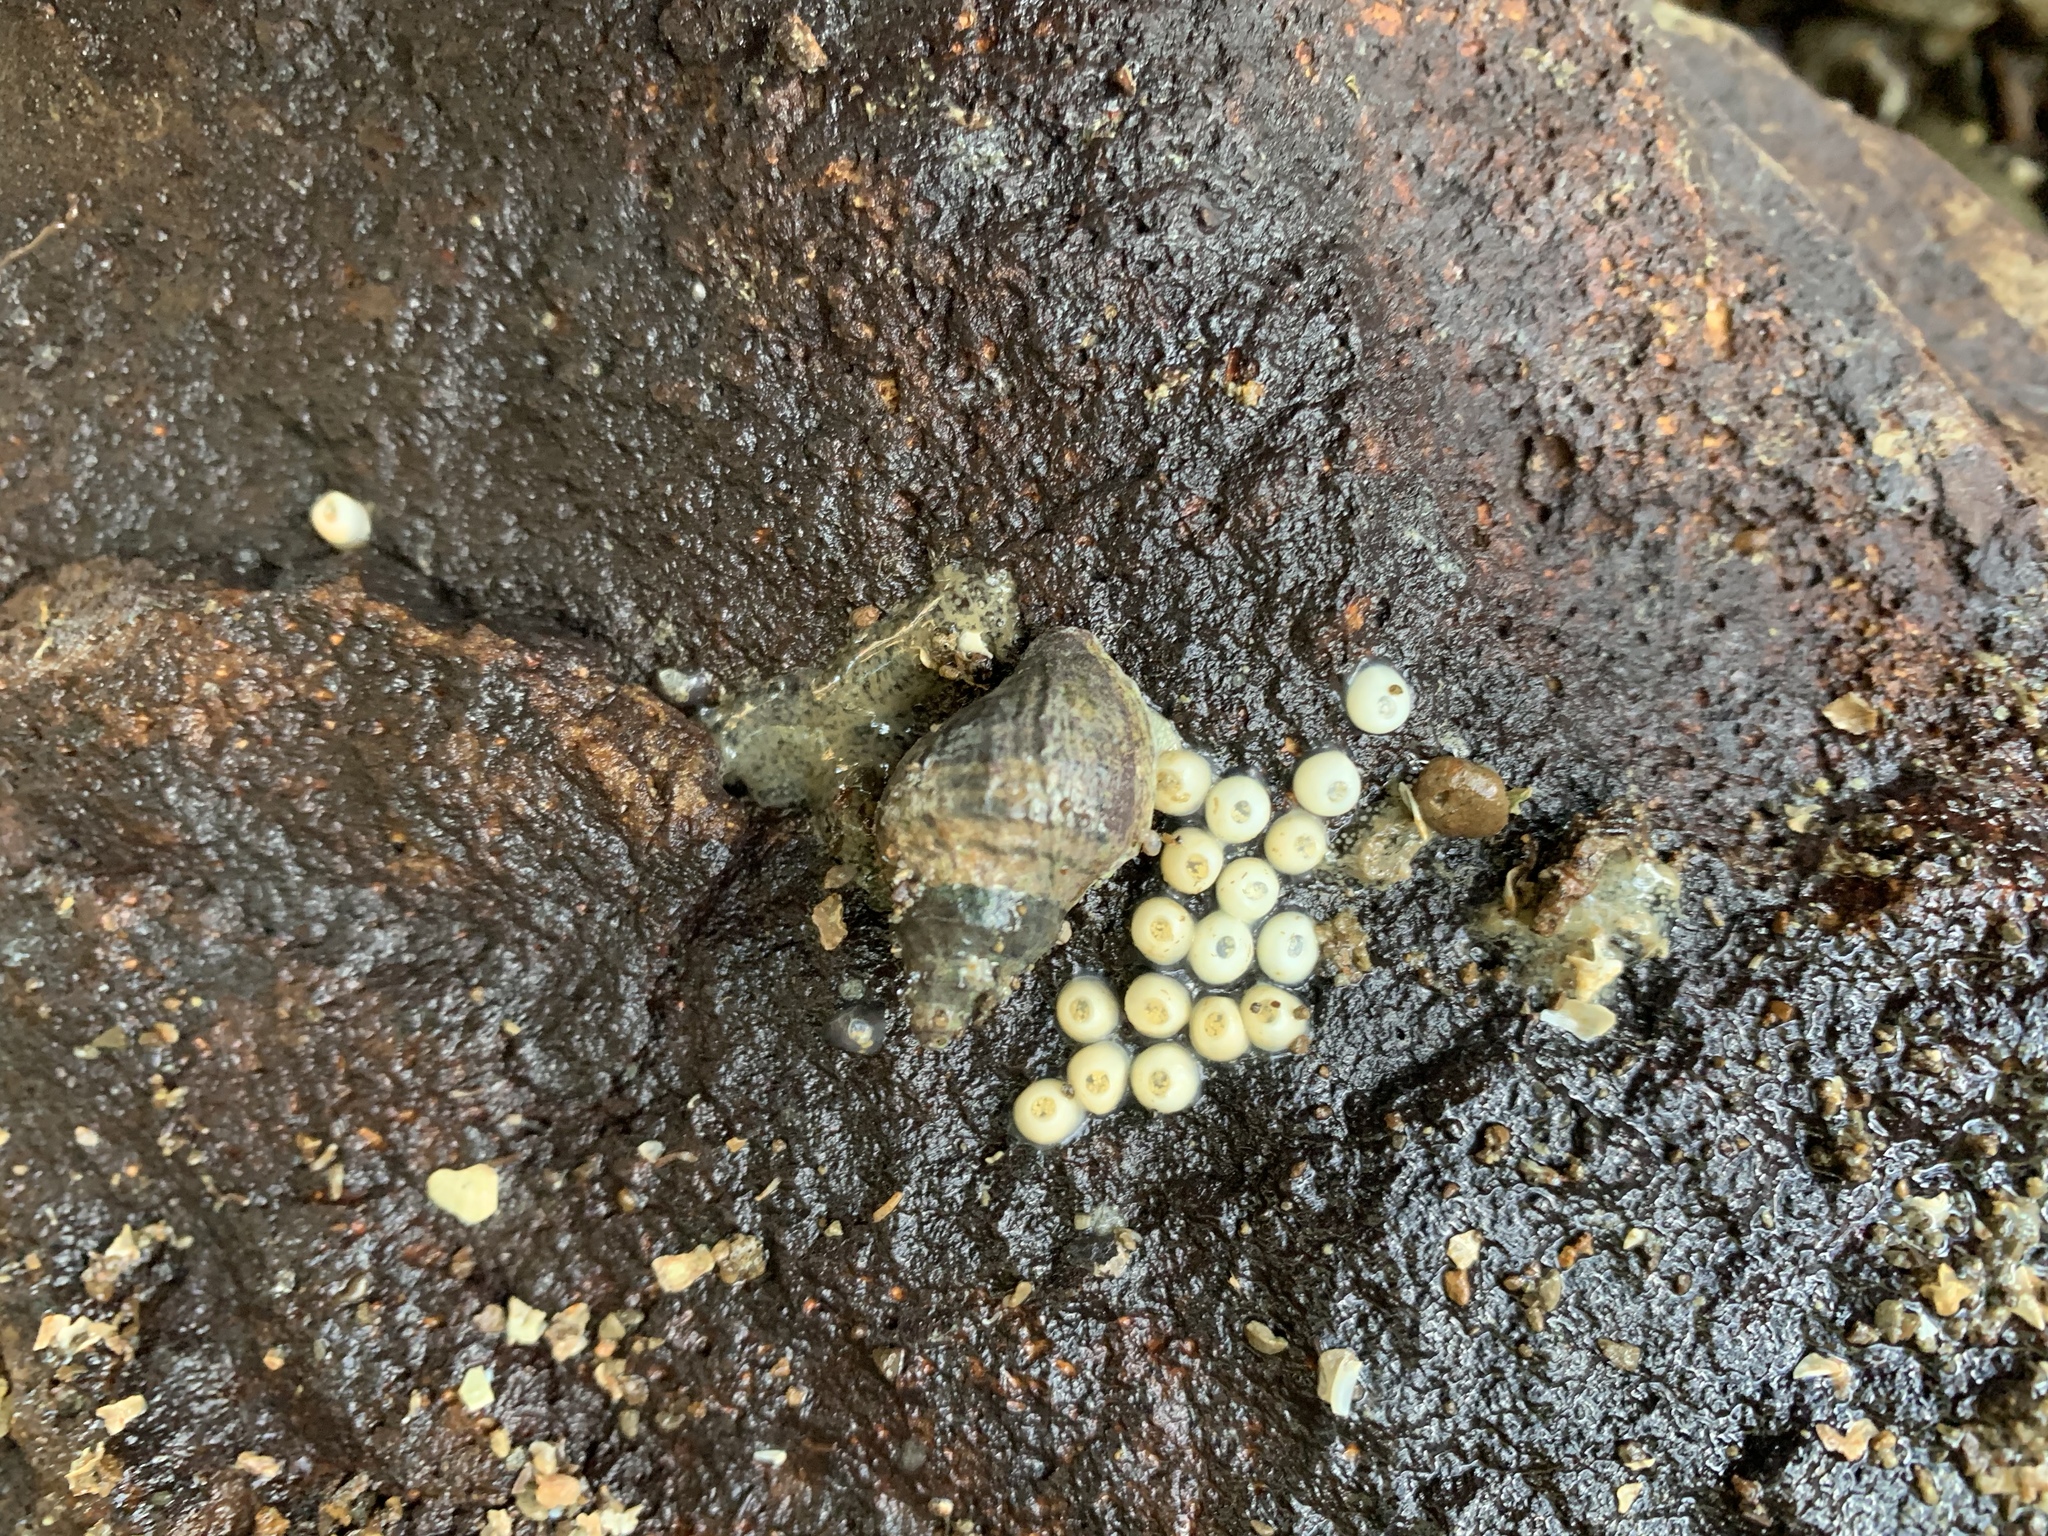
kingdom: Animalia
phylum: Mollusca
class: Gastropoda
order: Neogastropoda
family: Muricidae
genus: Haustrum
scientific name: Haustrum albomarginatum
